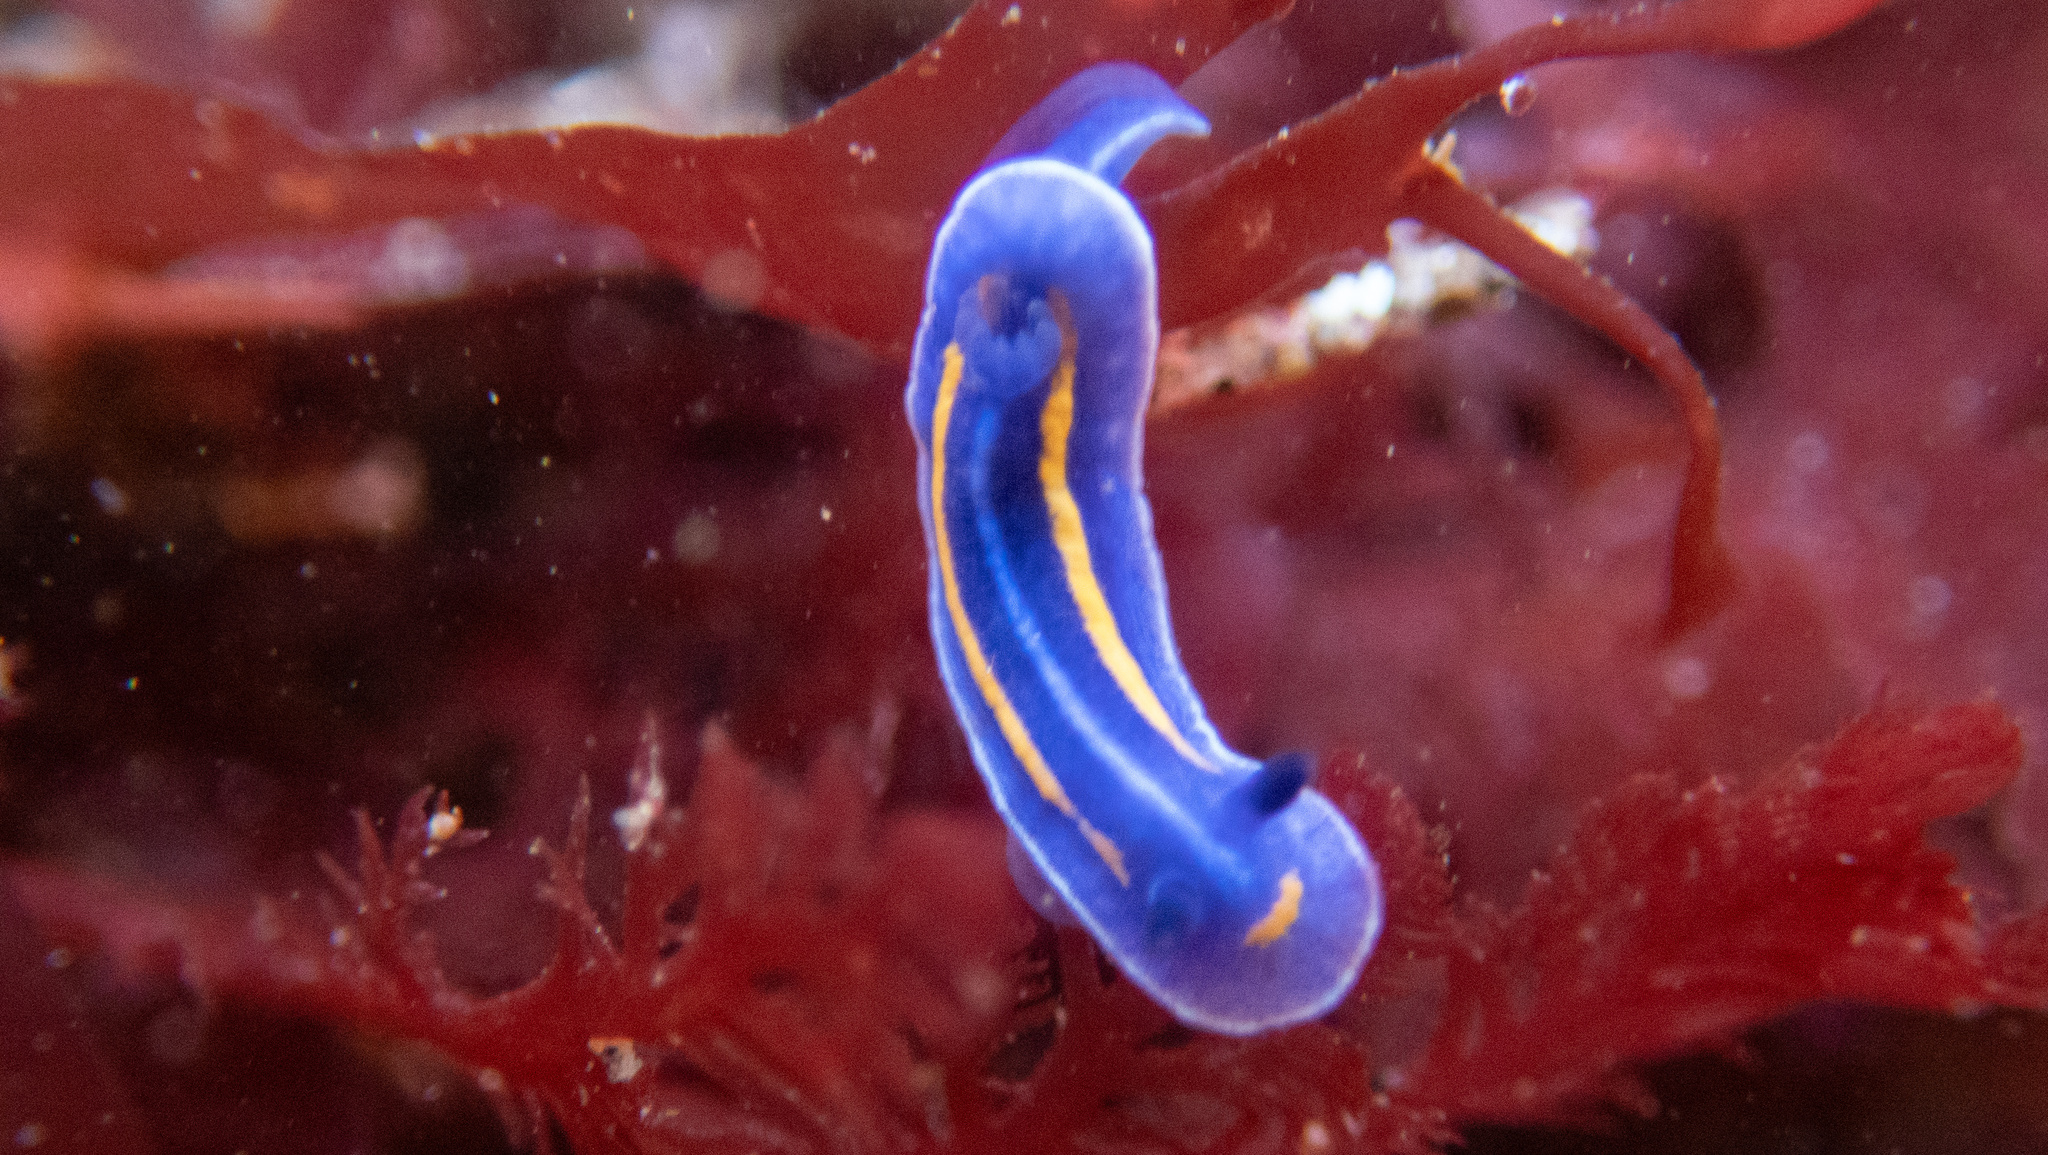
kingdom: Animalia
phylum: Mollusca
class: Gastropoda
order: Nudibranchia
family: Chromodorididae
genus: Felimare
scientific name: Felimare porterae
